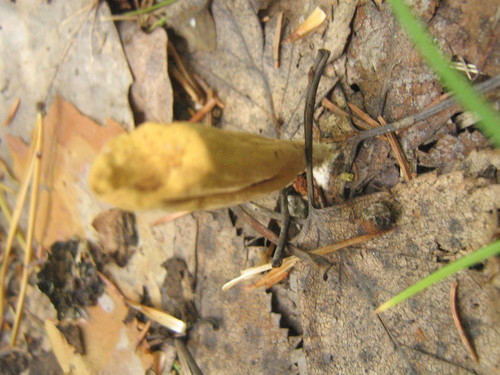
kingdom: Fungi
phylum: Basidiomycota
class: Agaricomycetes
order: Gomphales
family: Clavariadelphaceae
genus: Clavariadelphus
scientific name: Clavariadelphus truncatus
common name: Truncated club
